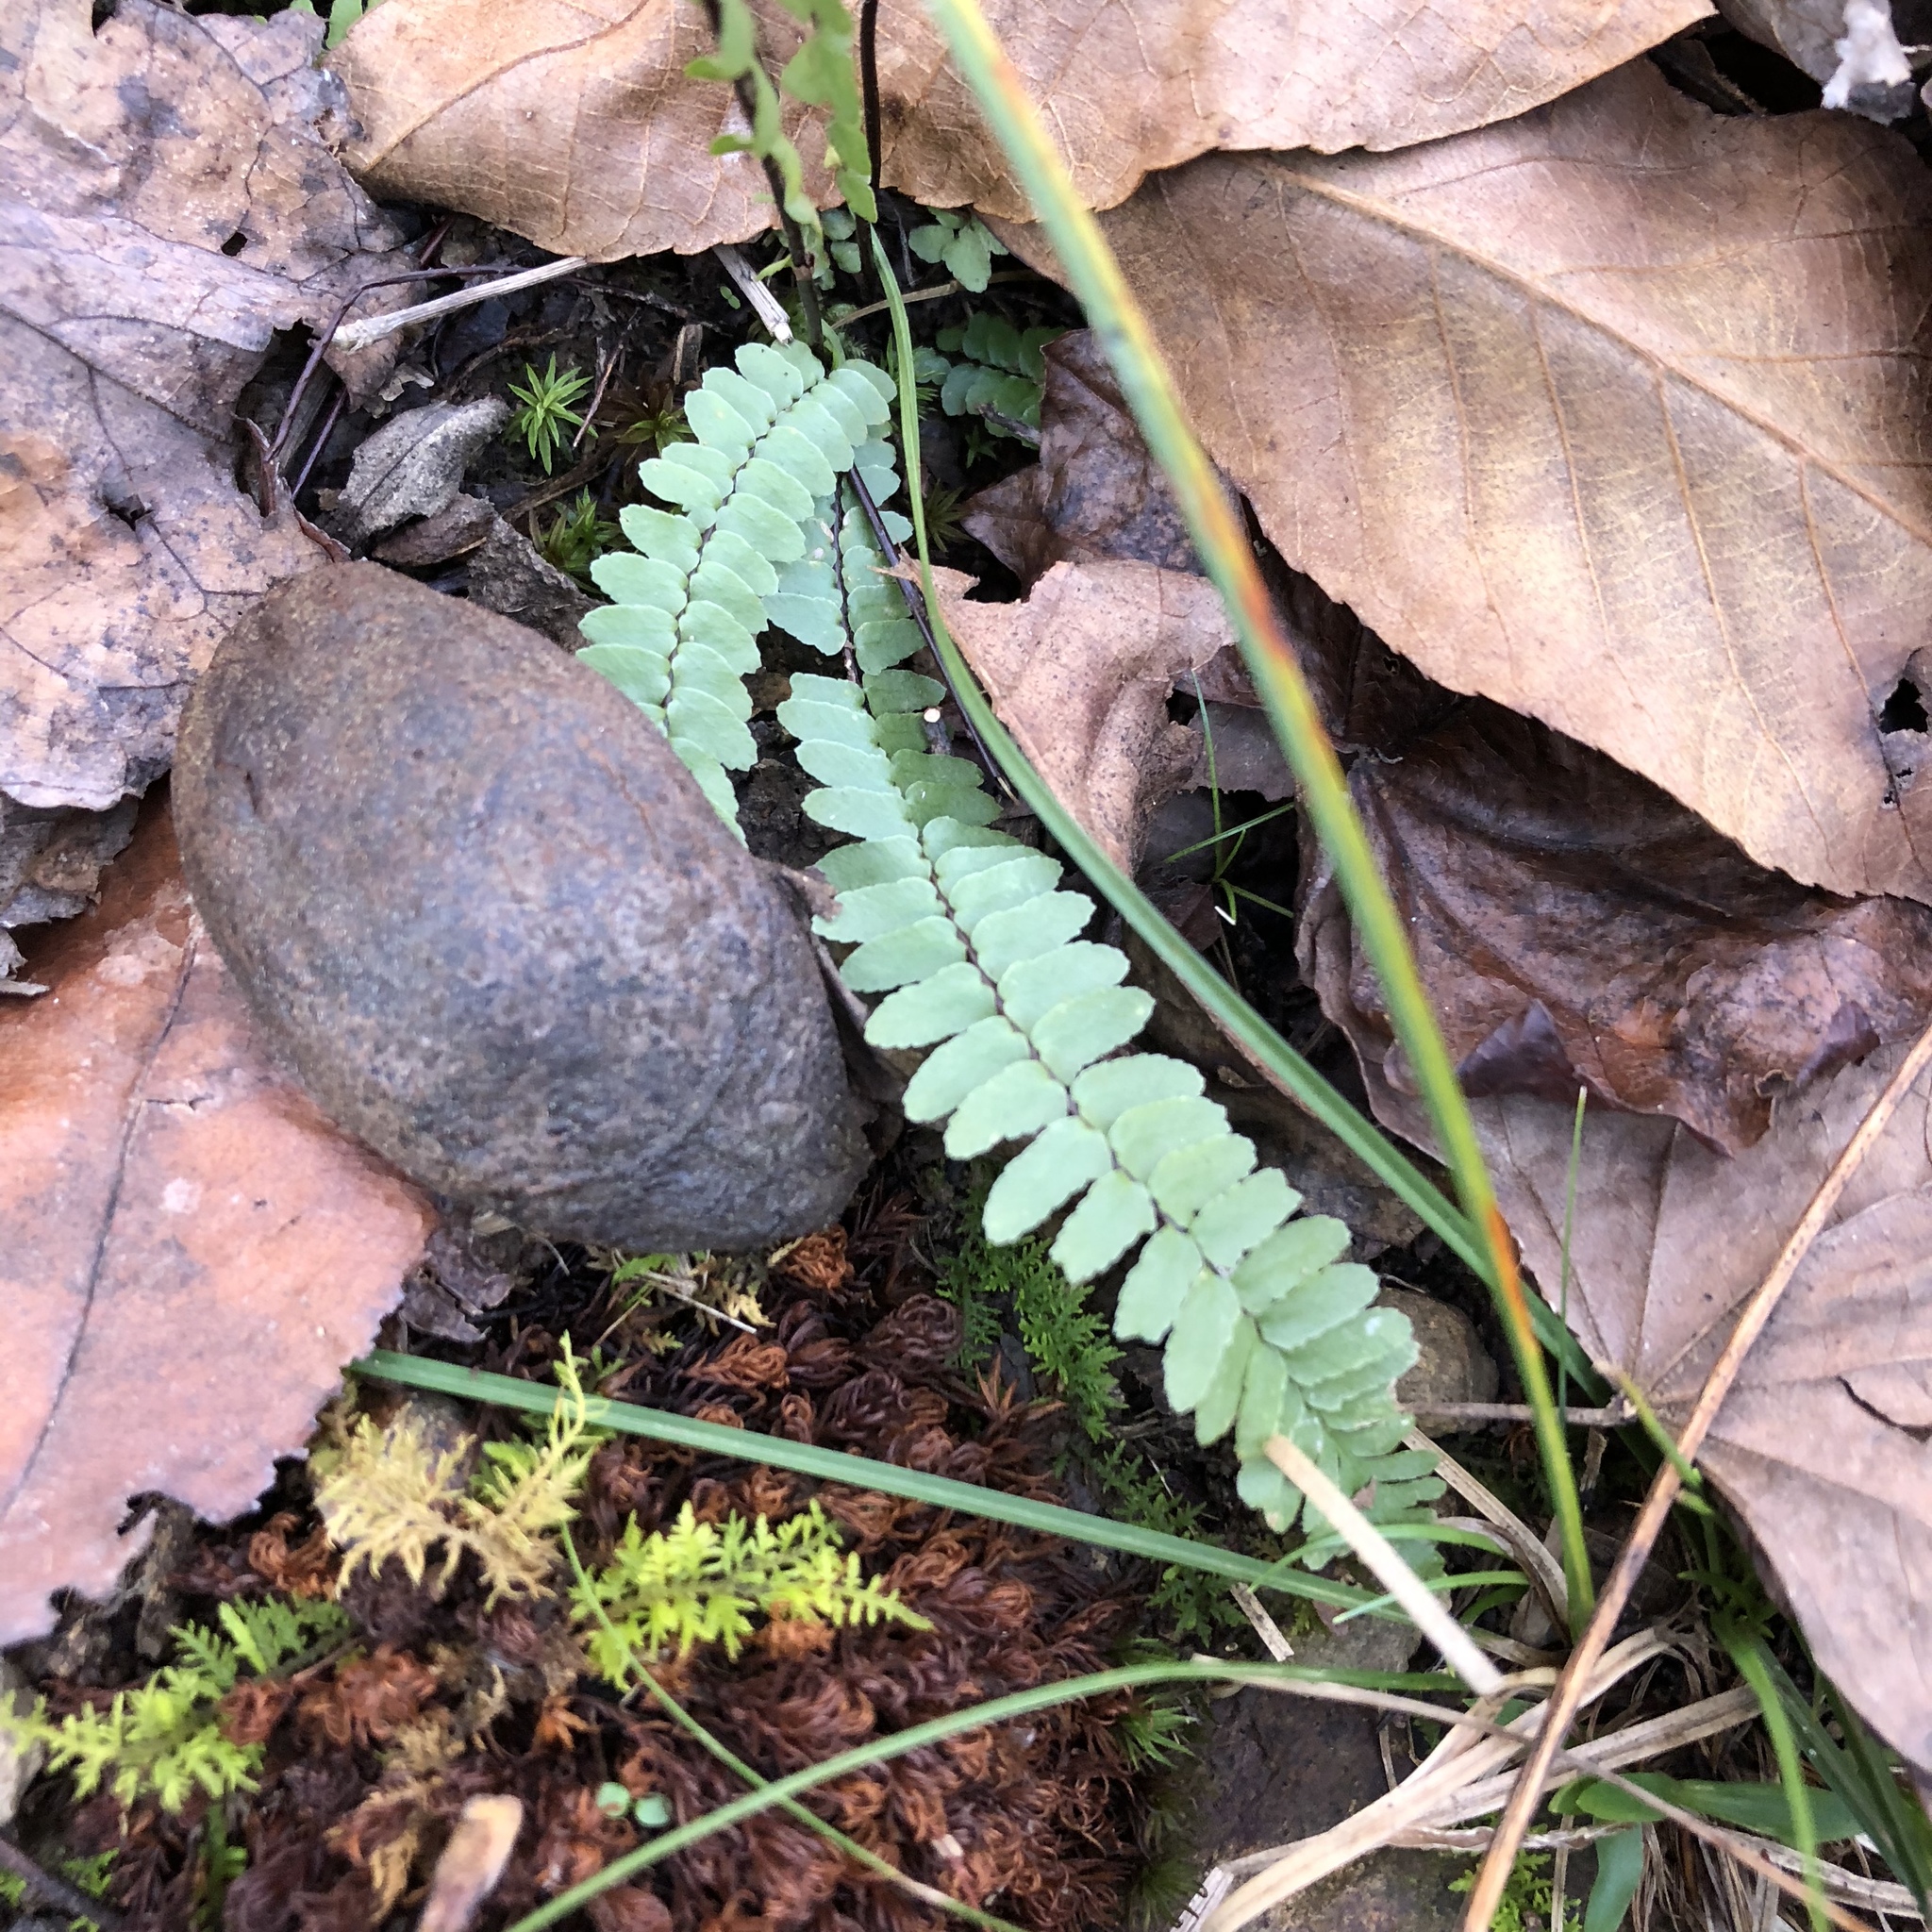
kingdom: Plantae
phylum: Tracheophyta
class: Polypodiopsida
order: Polypodiales
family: Aspleniaceae
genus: Asplenium
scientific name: Asplenium platyneuron
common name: Ebony spleenwort
